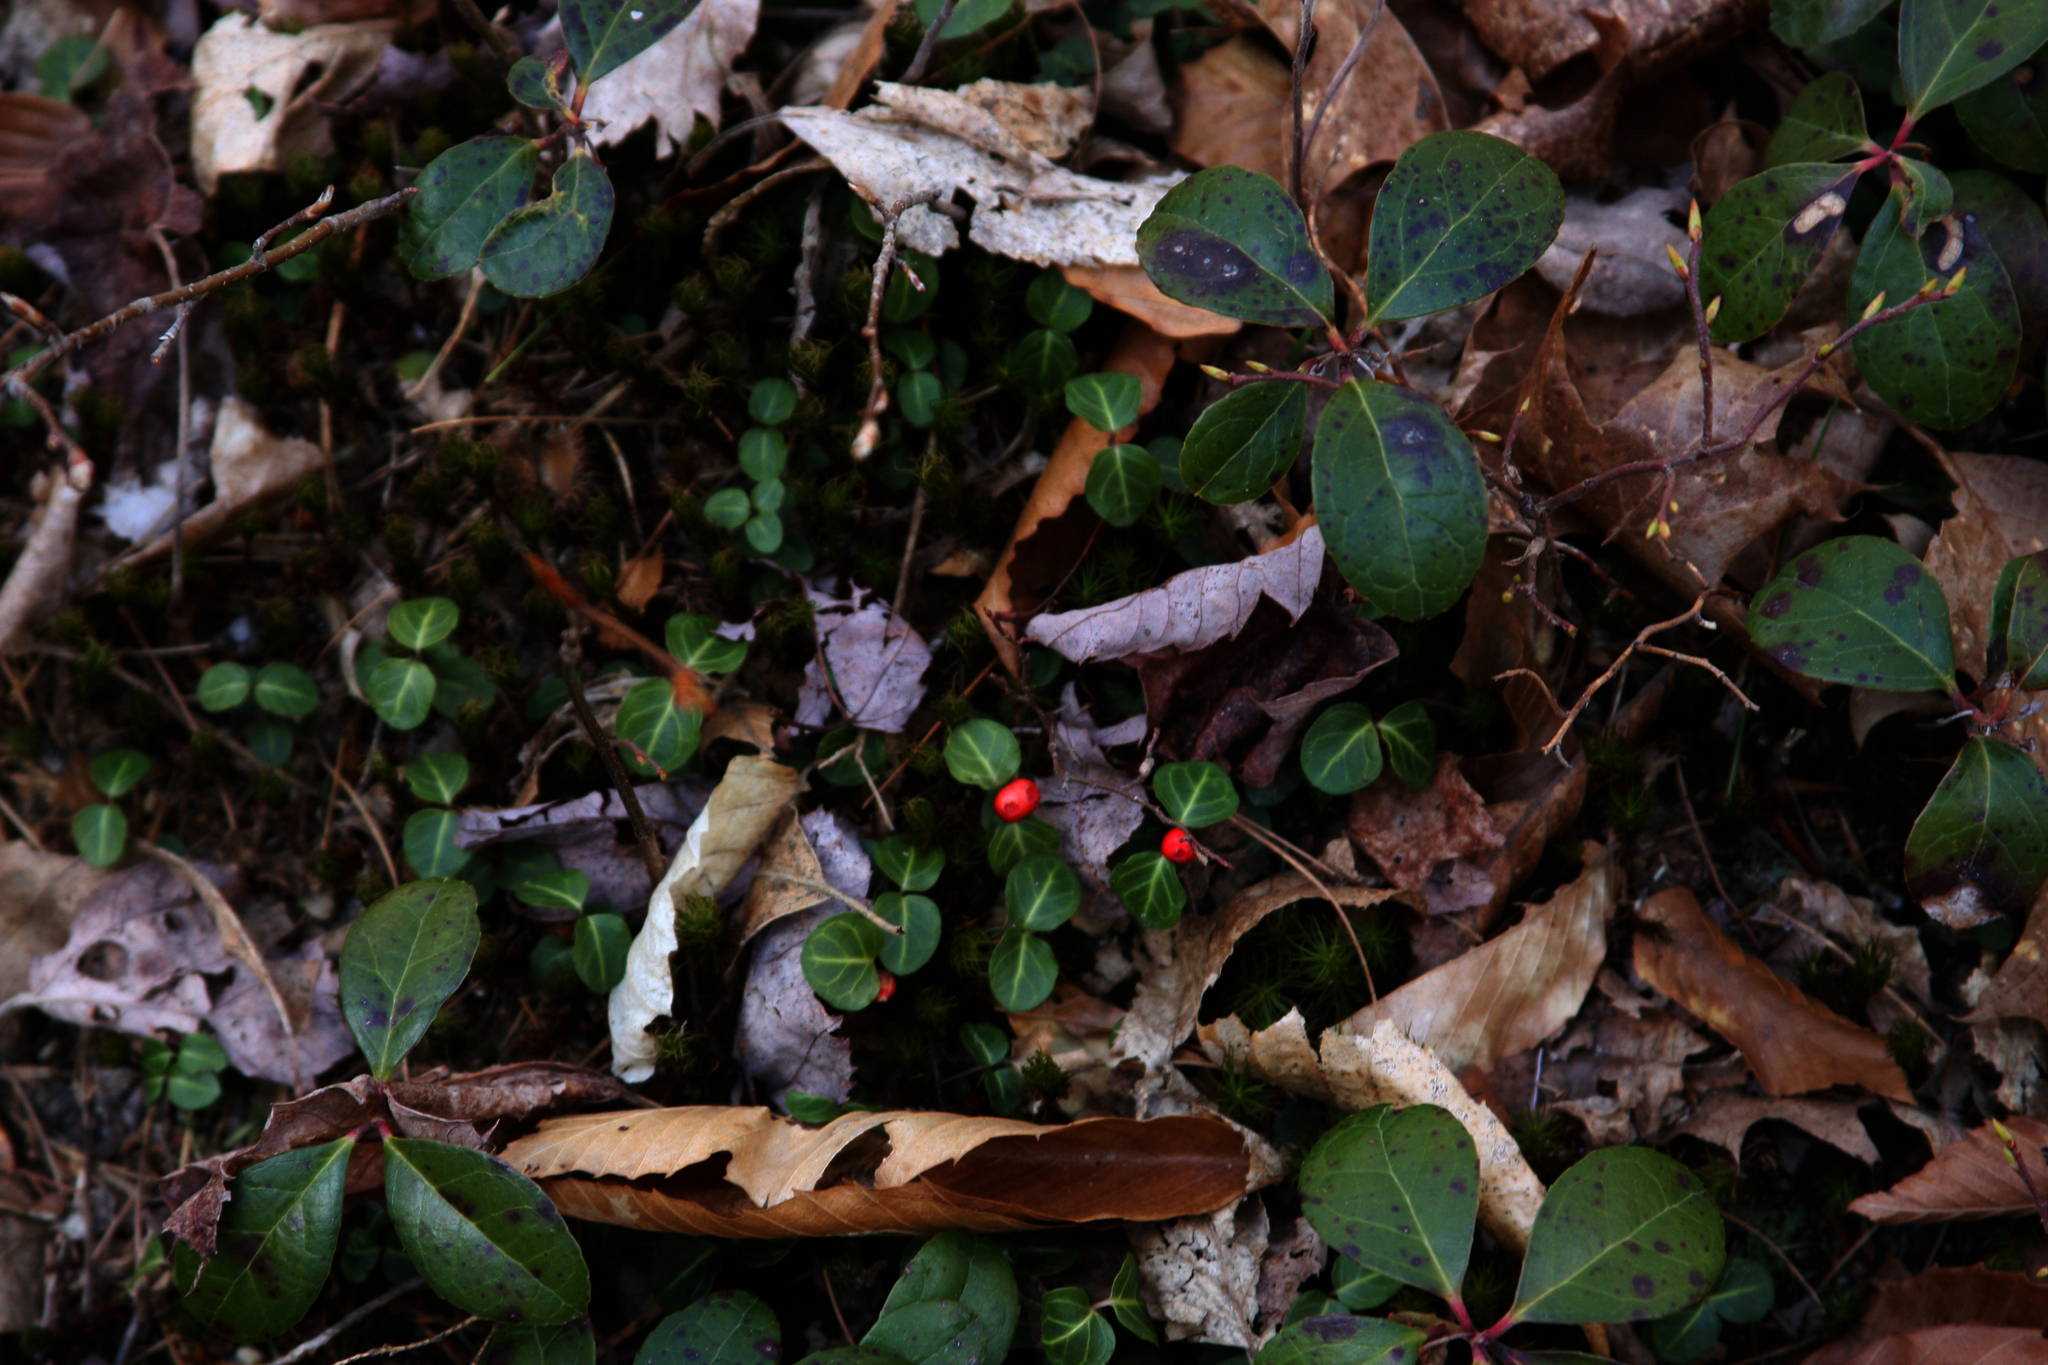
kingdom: Plantae
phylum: Tracheophyta
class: Magnoliopsida
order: Gentianales
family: Rubiaceae
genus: Mitchella
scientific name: Mitchella repens
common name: Partridge-berry
